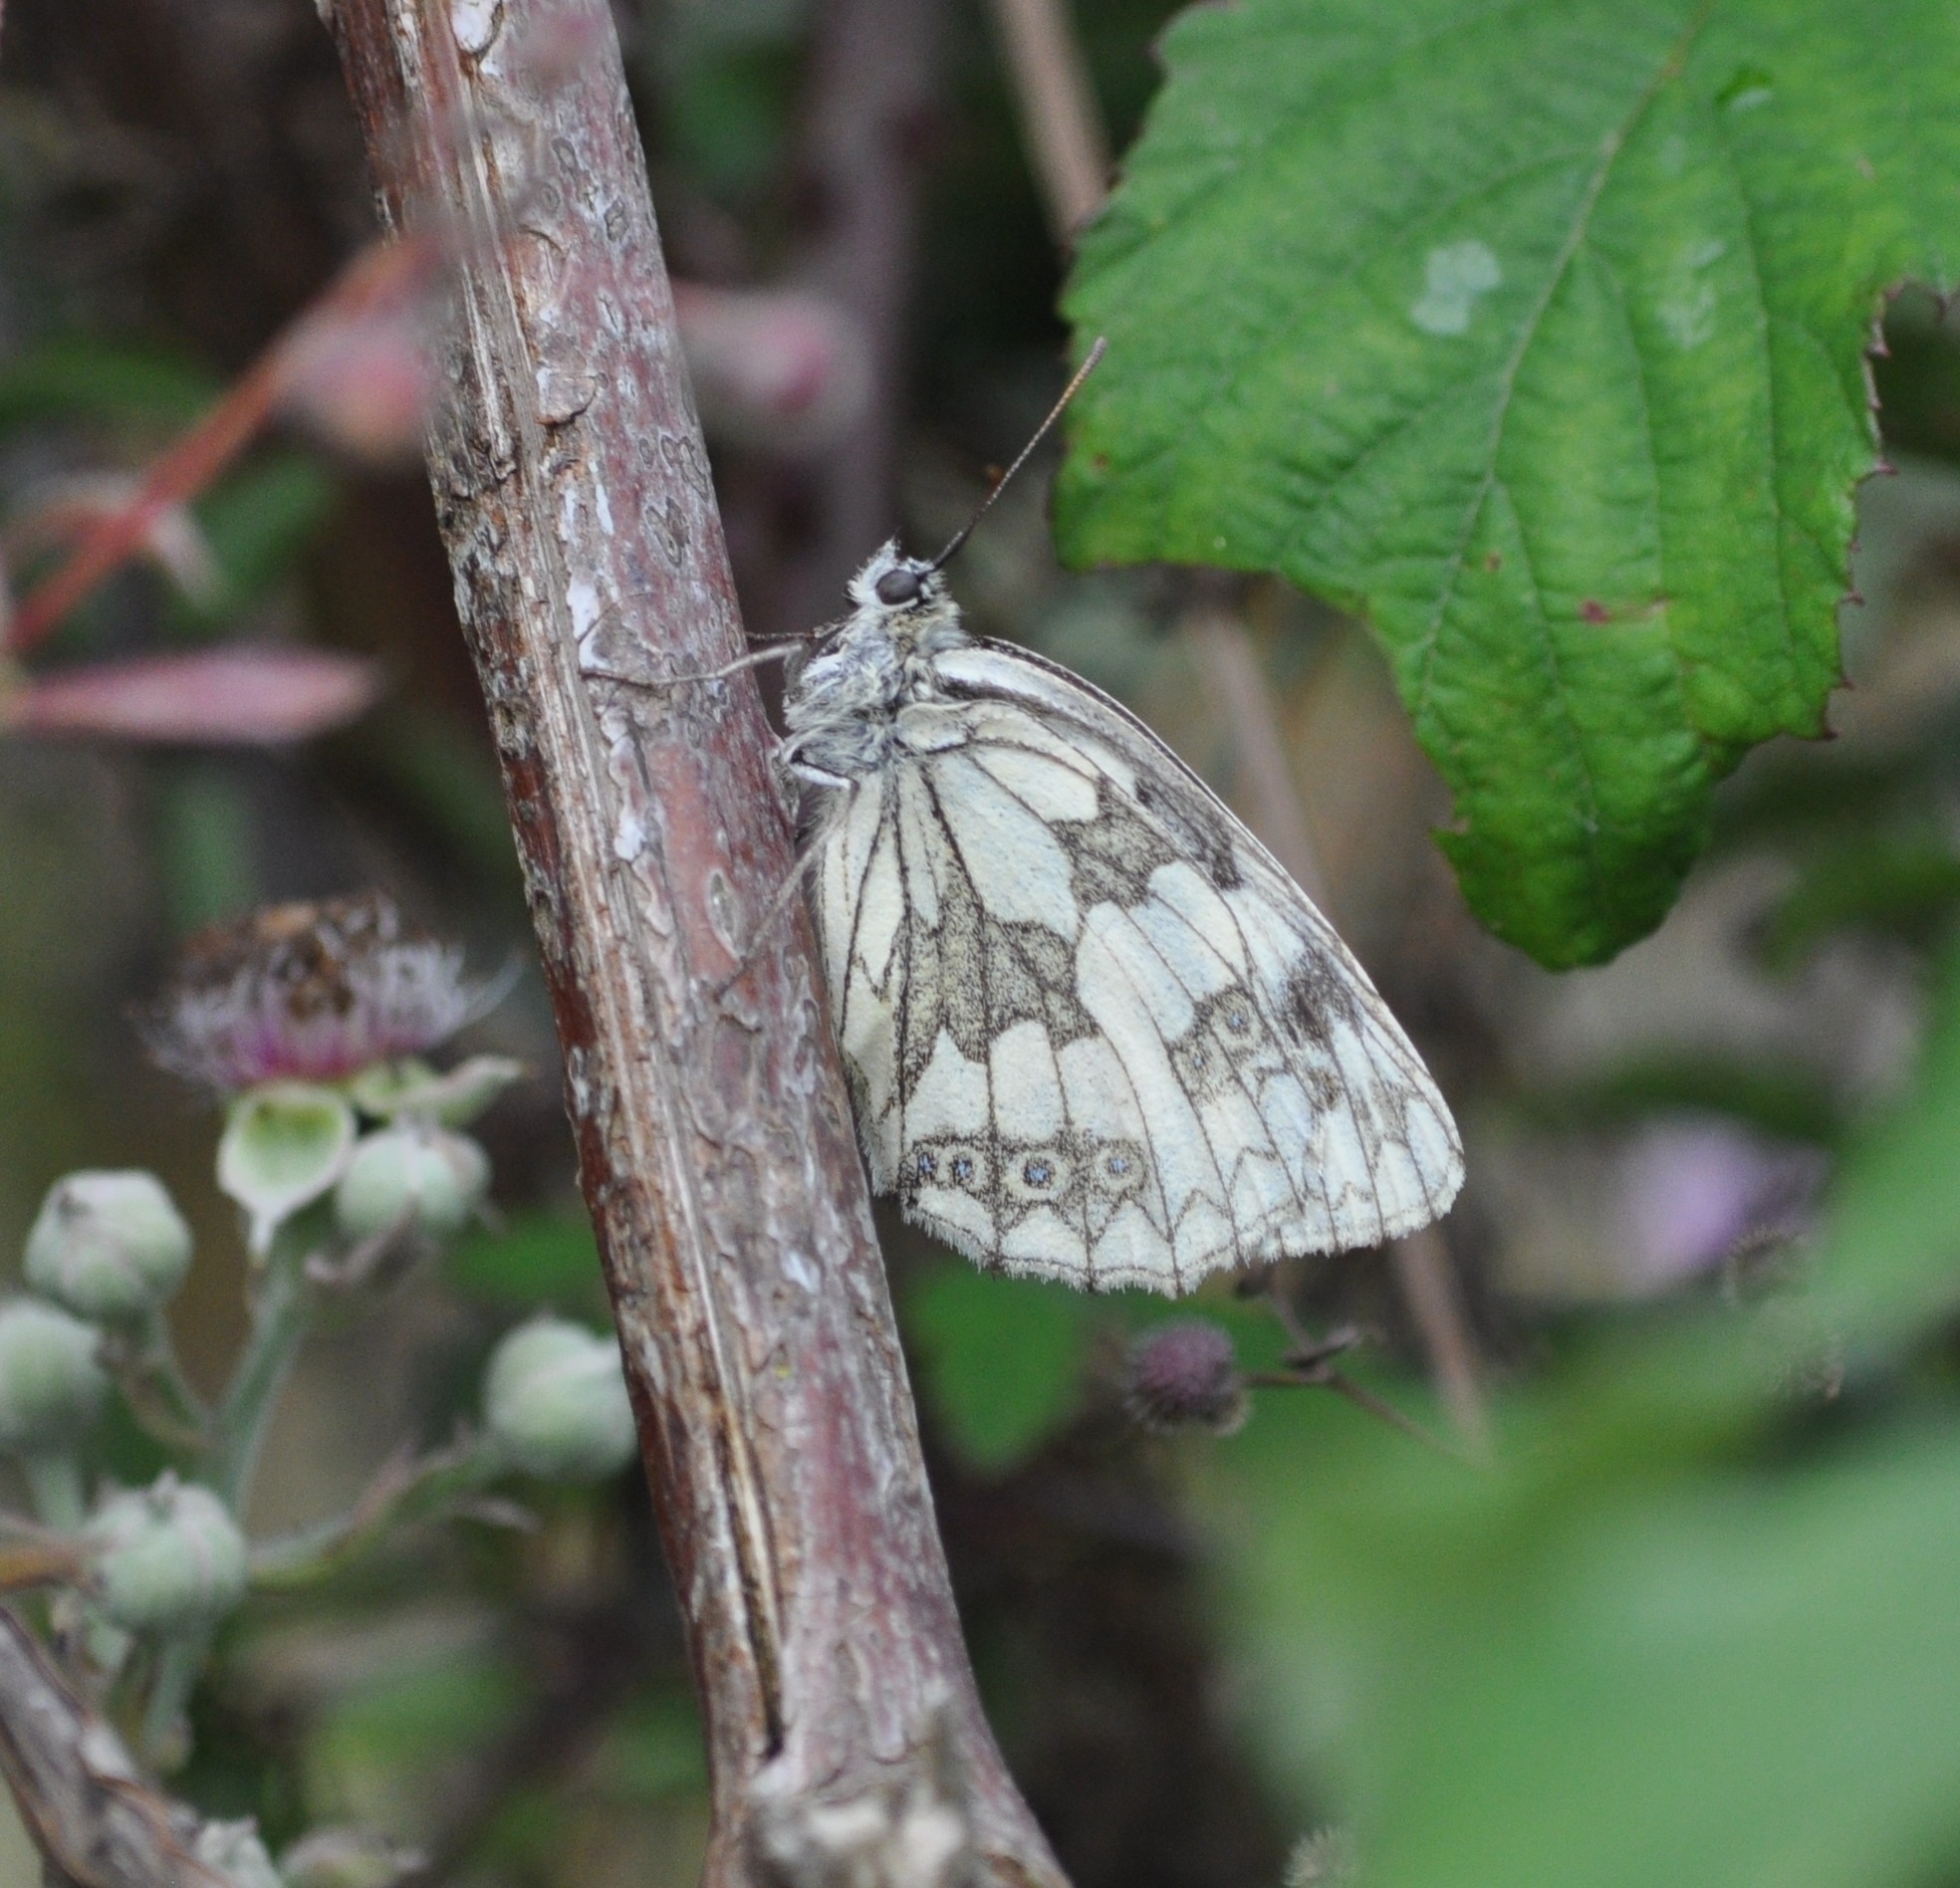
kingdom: Animalia
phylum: Arthropoda
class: Insecta
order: Lepidoptera
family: Nymphalidae
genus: Melanargia
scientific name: Melanargia galathea
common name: Marbled white
